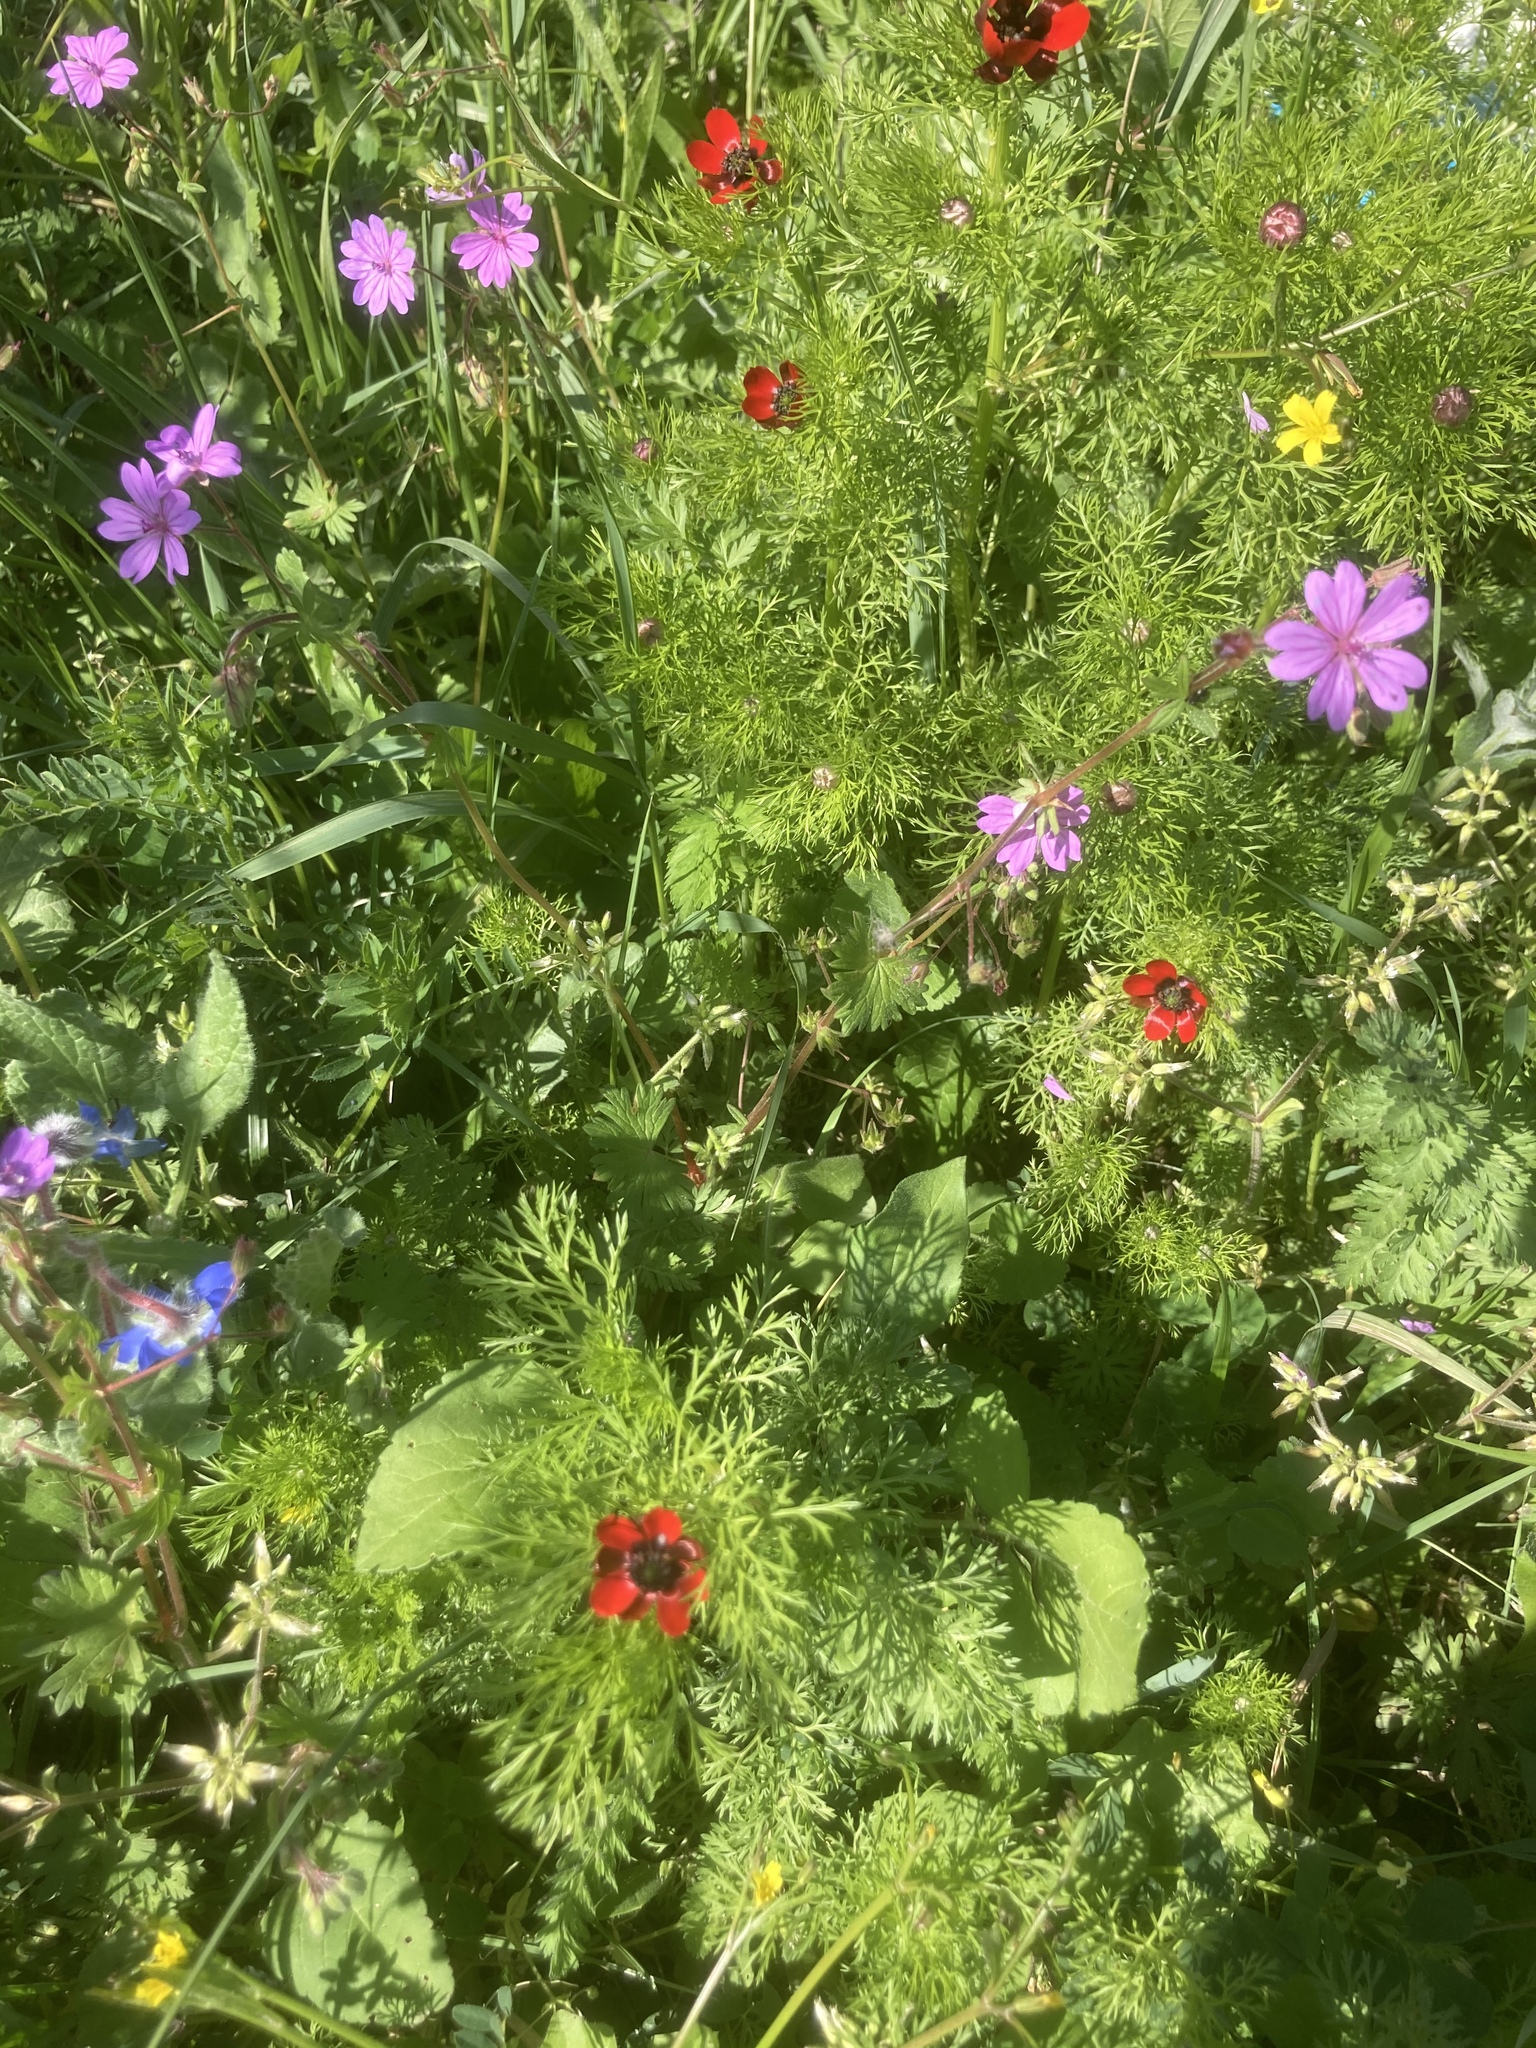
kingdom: Plantae
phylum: Tracheophyta
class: Magnoliopsida
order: Boraginales
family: Boraginaceae
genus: Borago
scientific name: Borago officinalis
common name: Borage
